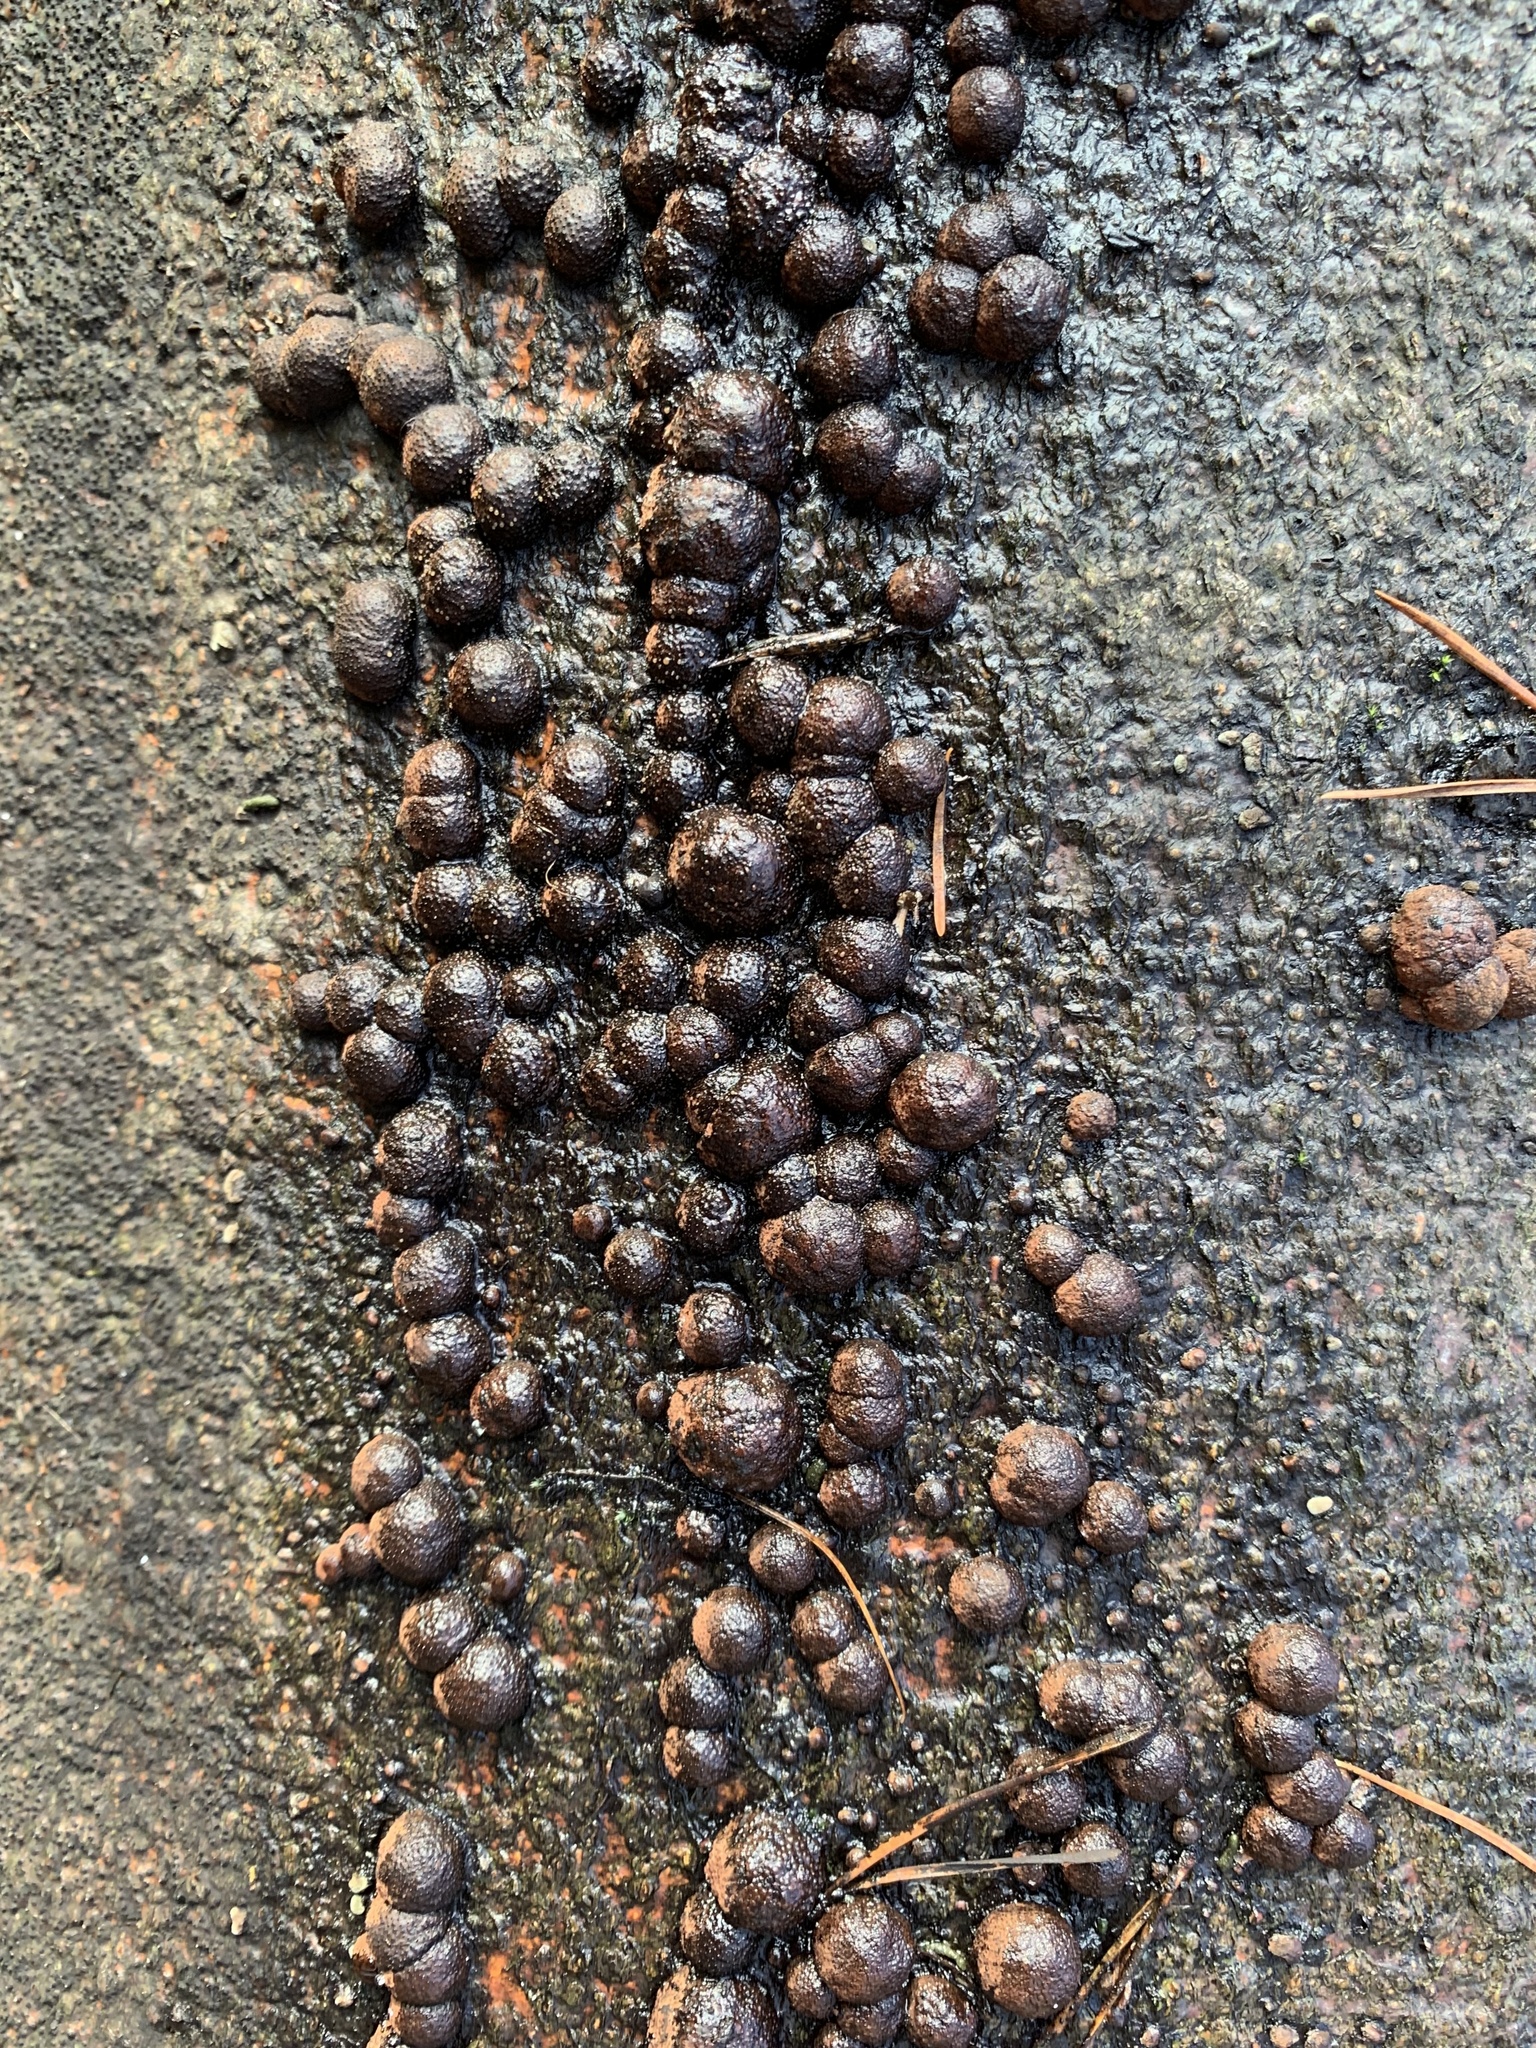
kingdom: Fungi
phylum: Ascomycota
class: Sordariomycetes
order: Xylariales
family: Hypoxylaceae
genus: Hypoxylon
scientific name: Hypoxylon fragiforme
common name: Beech woodwart
